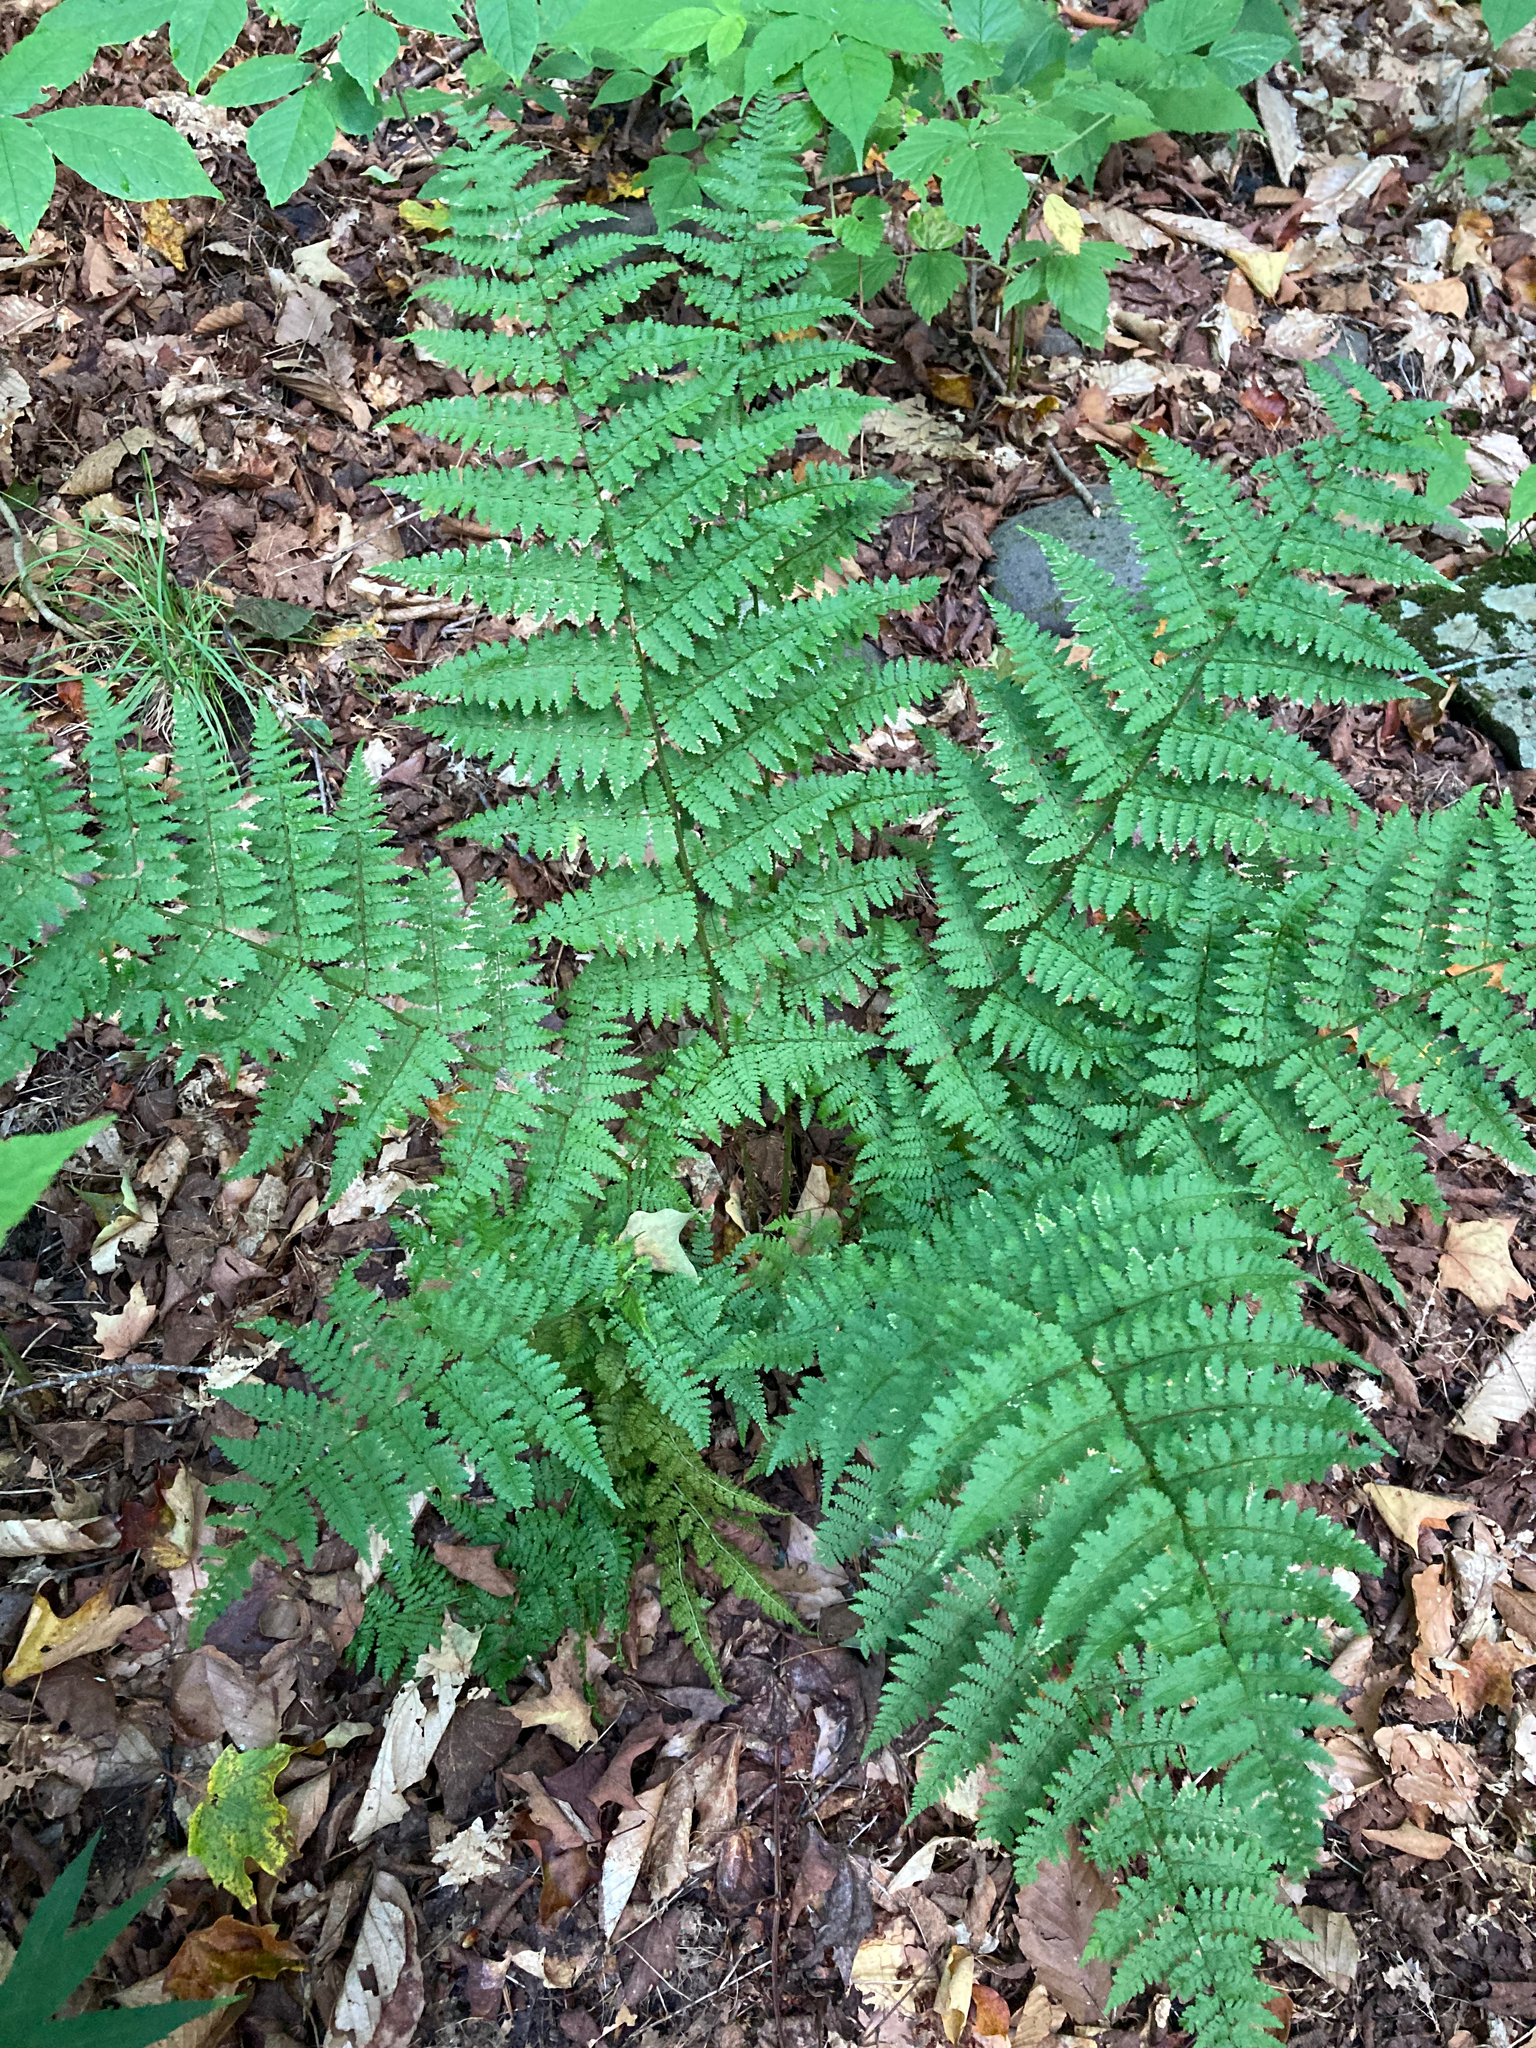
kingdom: Plantae
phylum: Tracheophyta
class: Polypodiopsida
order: Polypodiales
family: Dryopteridaceae
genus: Dryopteris
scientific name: Dryopteris intermedia
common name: Evergreen wood fern
